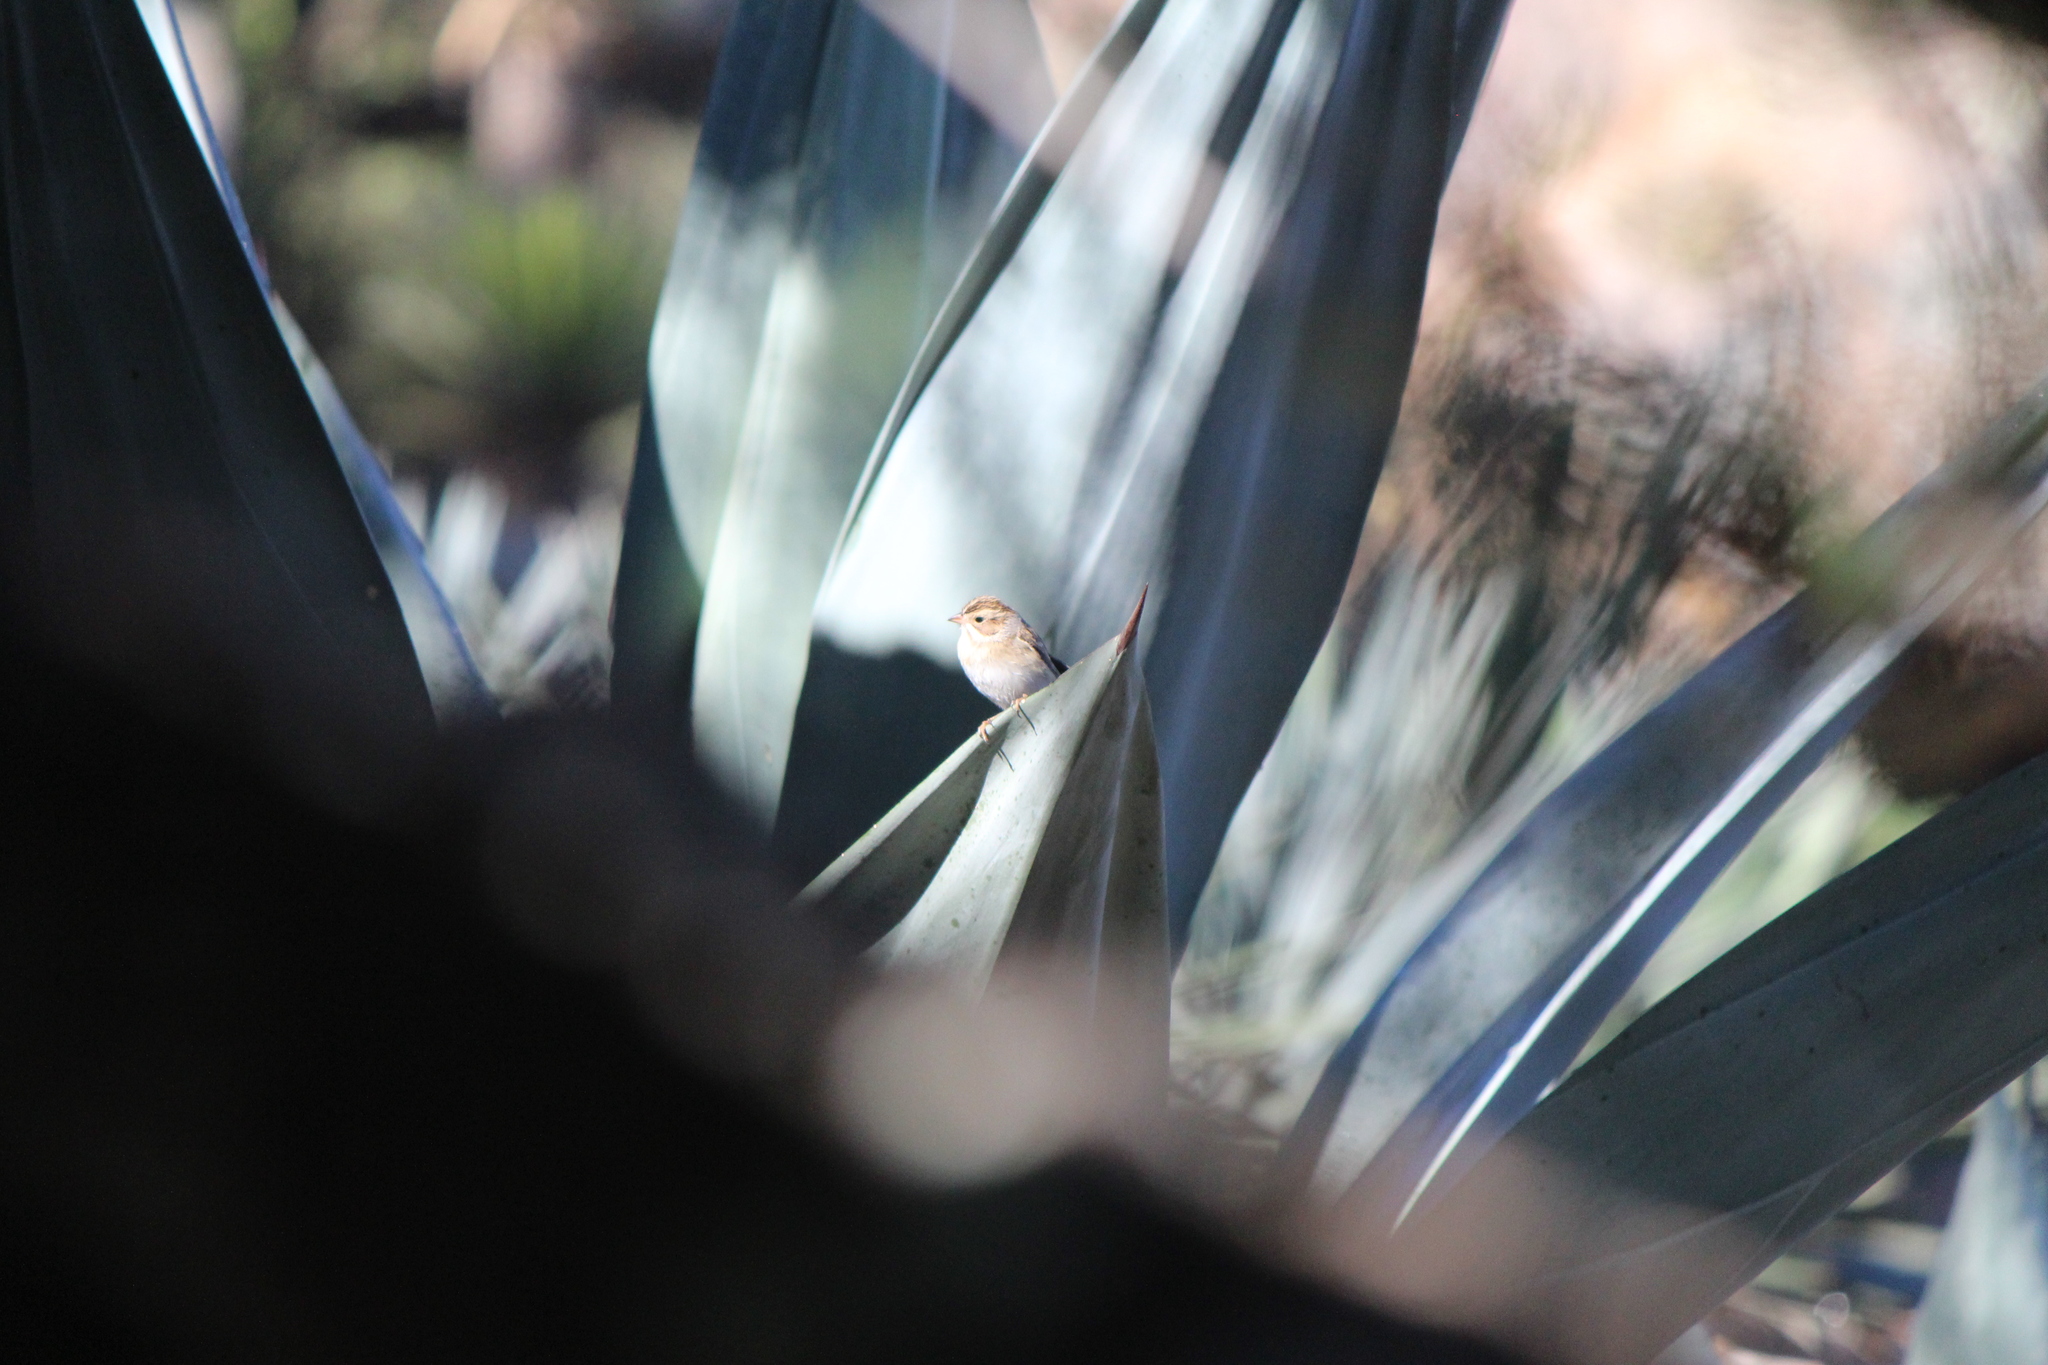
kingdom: Animalia
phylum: Chordata
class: Aves
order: Passeriformes
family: Passerellidae
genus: Spizella
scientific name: Spizella pallida
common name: Clay-colored sparrow
